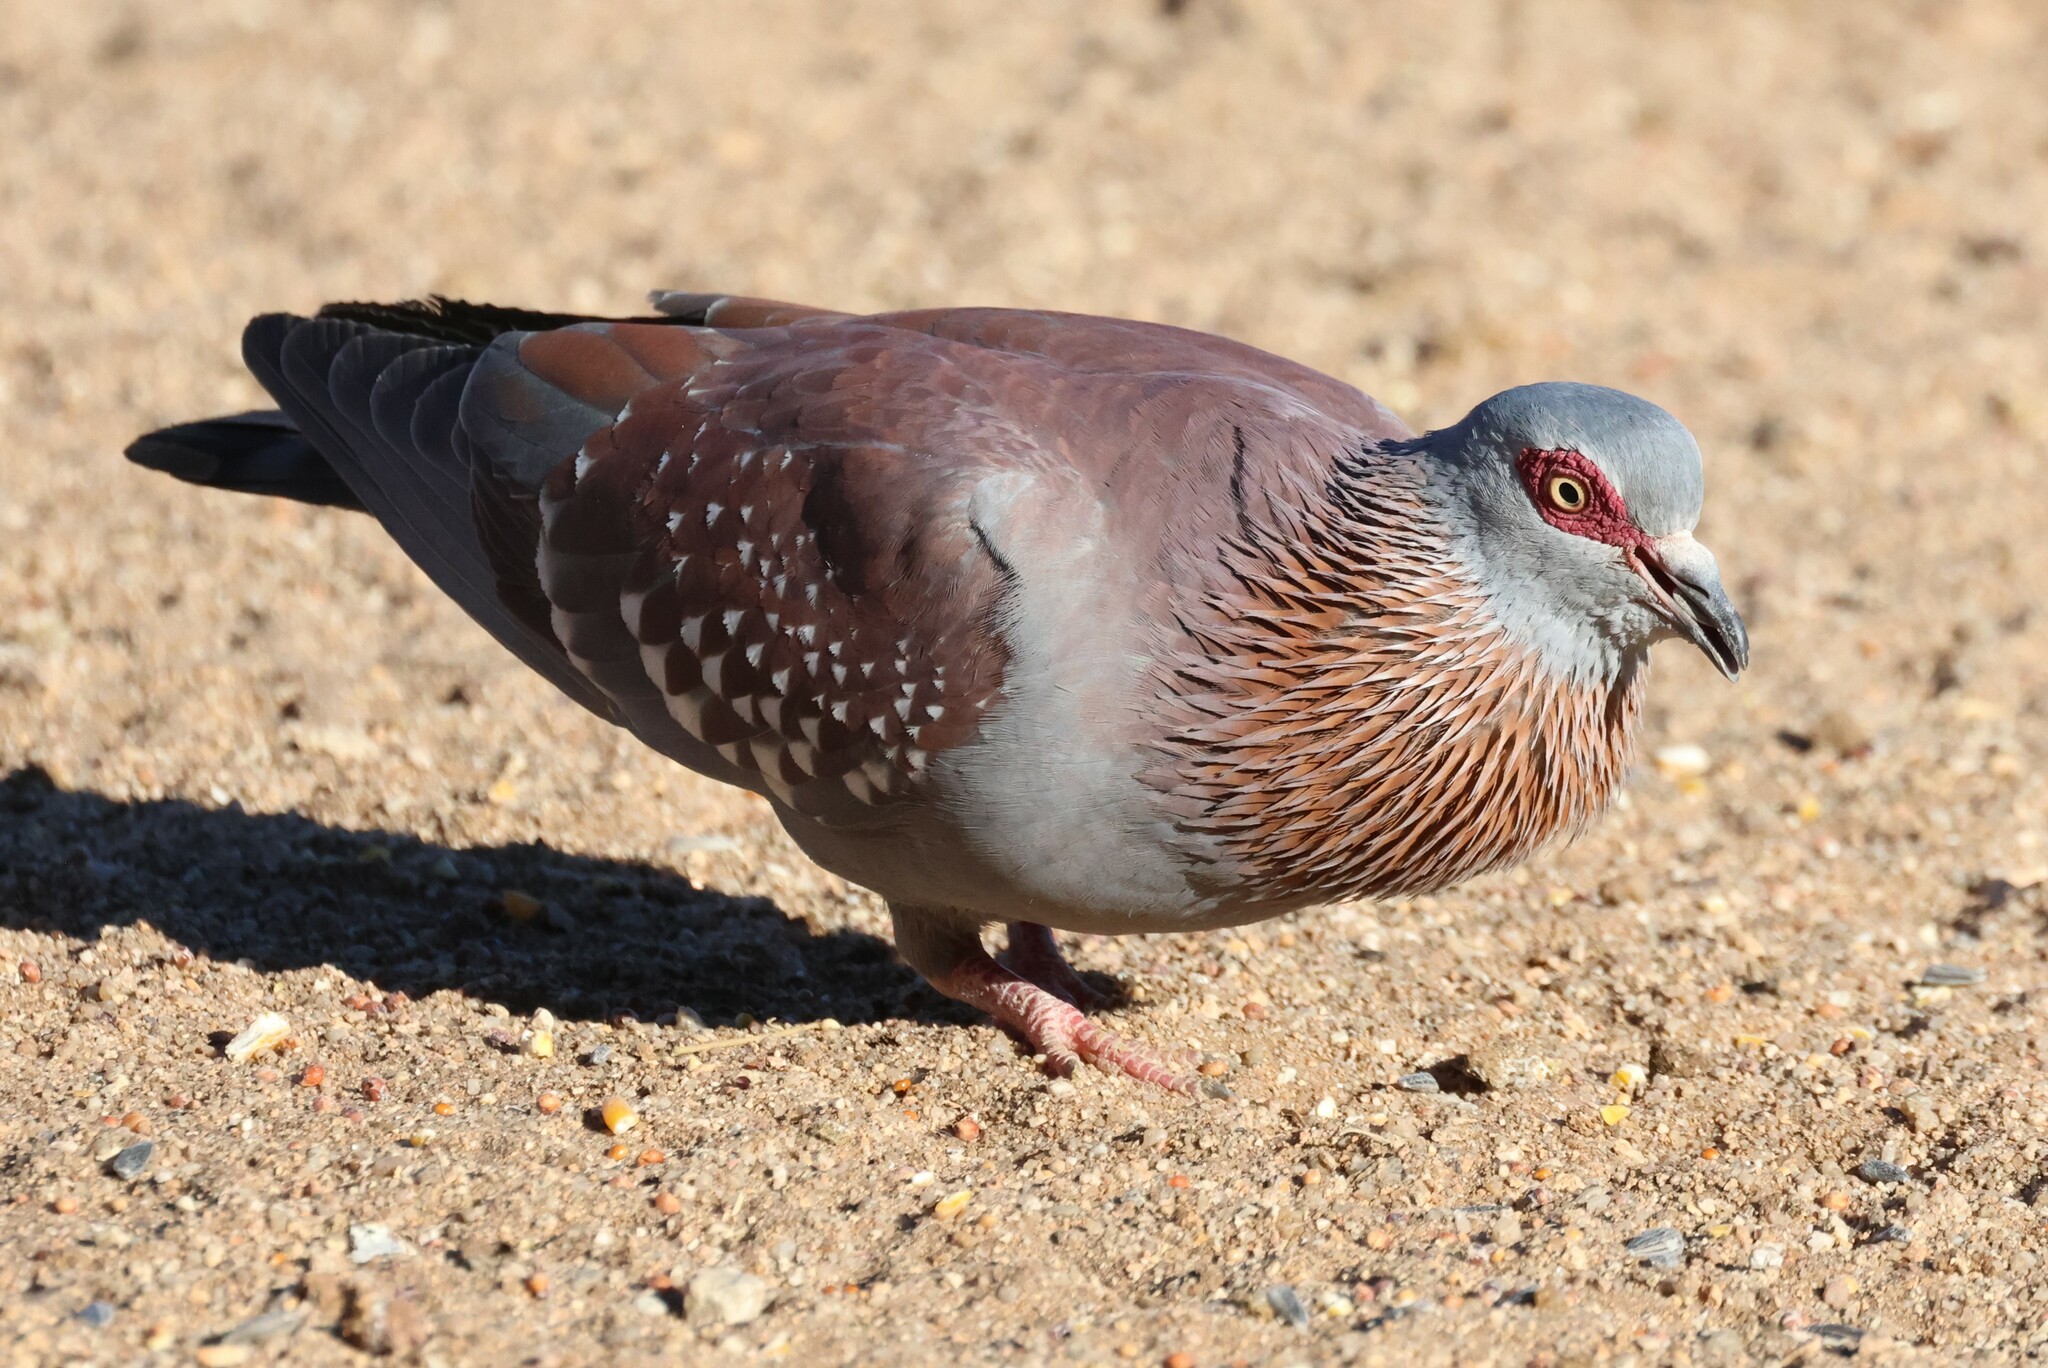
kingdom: Animalia
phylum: Chordata
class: Aves
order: Columbiformes
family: Columbidae
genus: Columba
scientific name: Columba guinea
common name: Speckled pigeon
